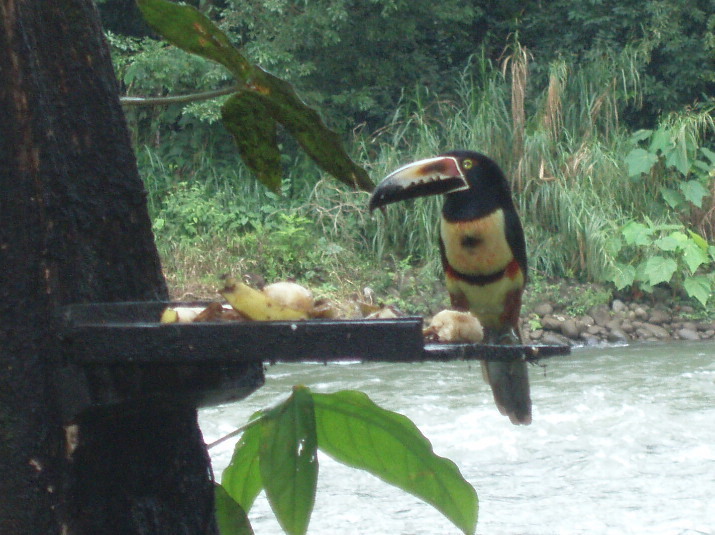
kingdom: Animalia
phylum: Chordata
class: Aves
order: Piciformes
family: Ramphastidae
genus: Pteroglossus
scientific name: Pteroglossus torquatus
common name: Collared aracari
